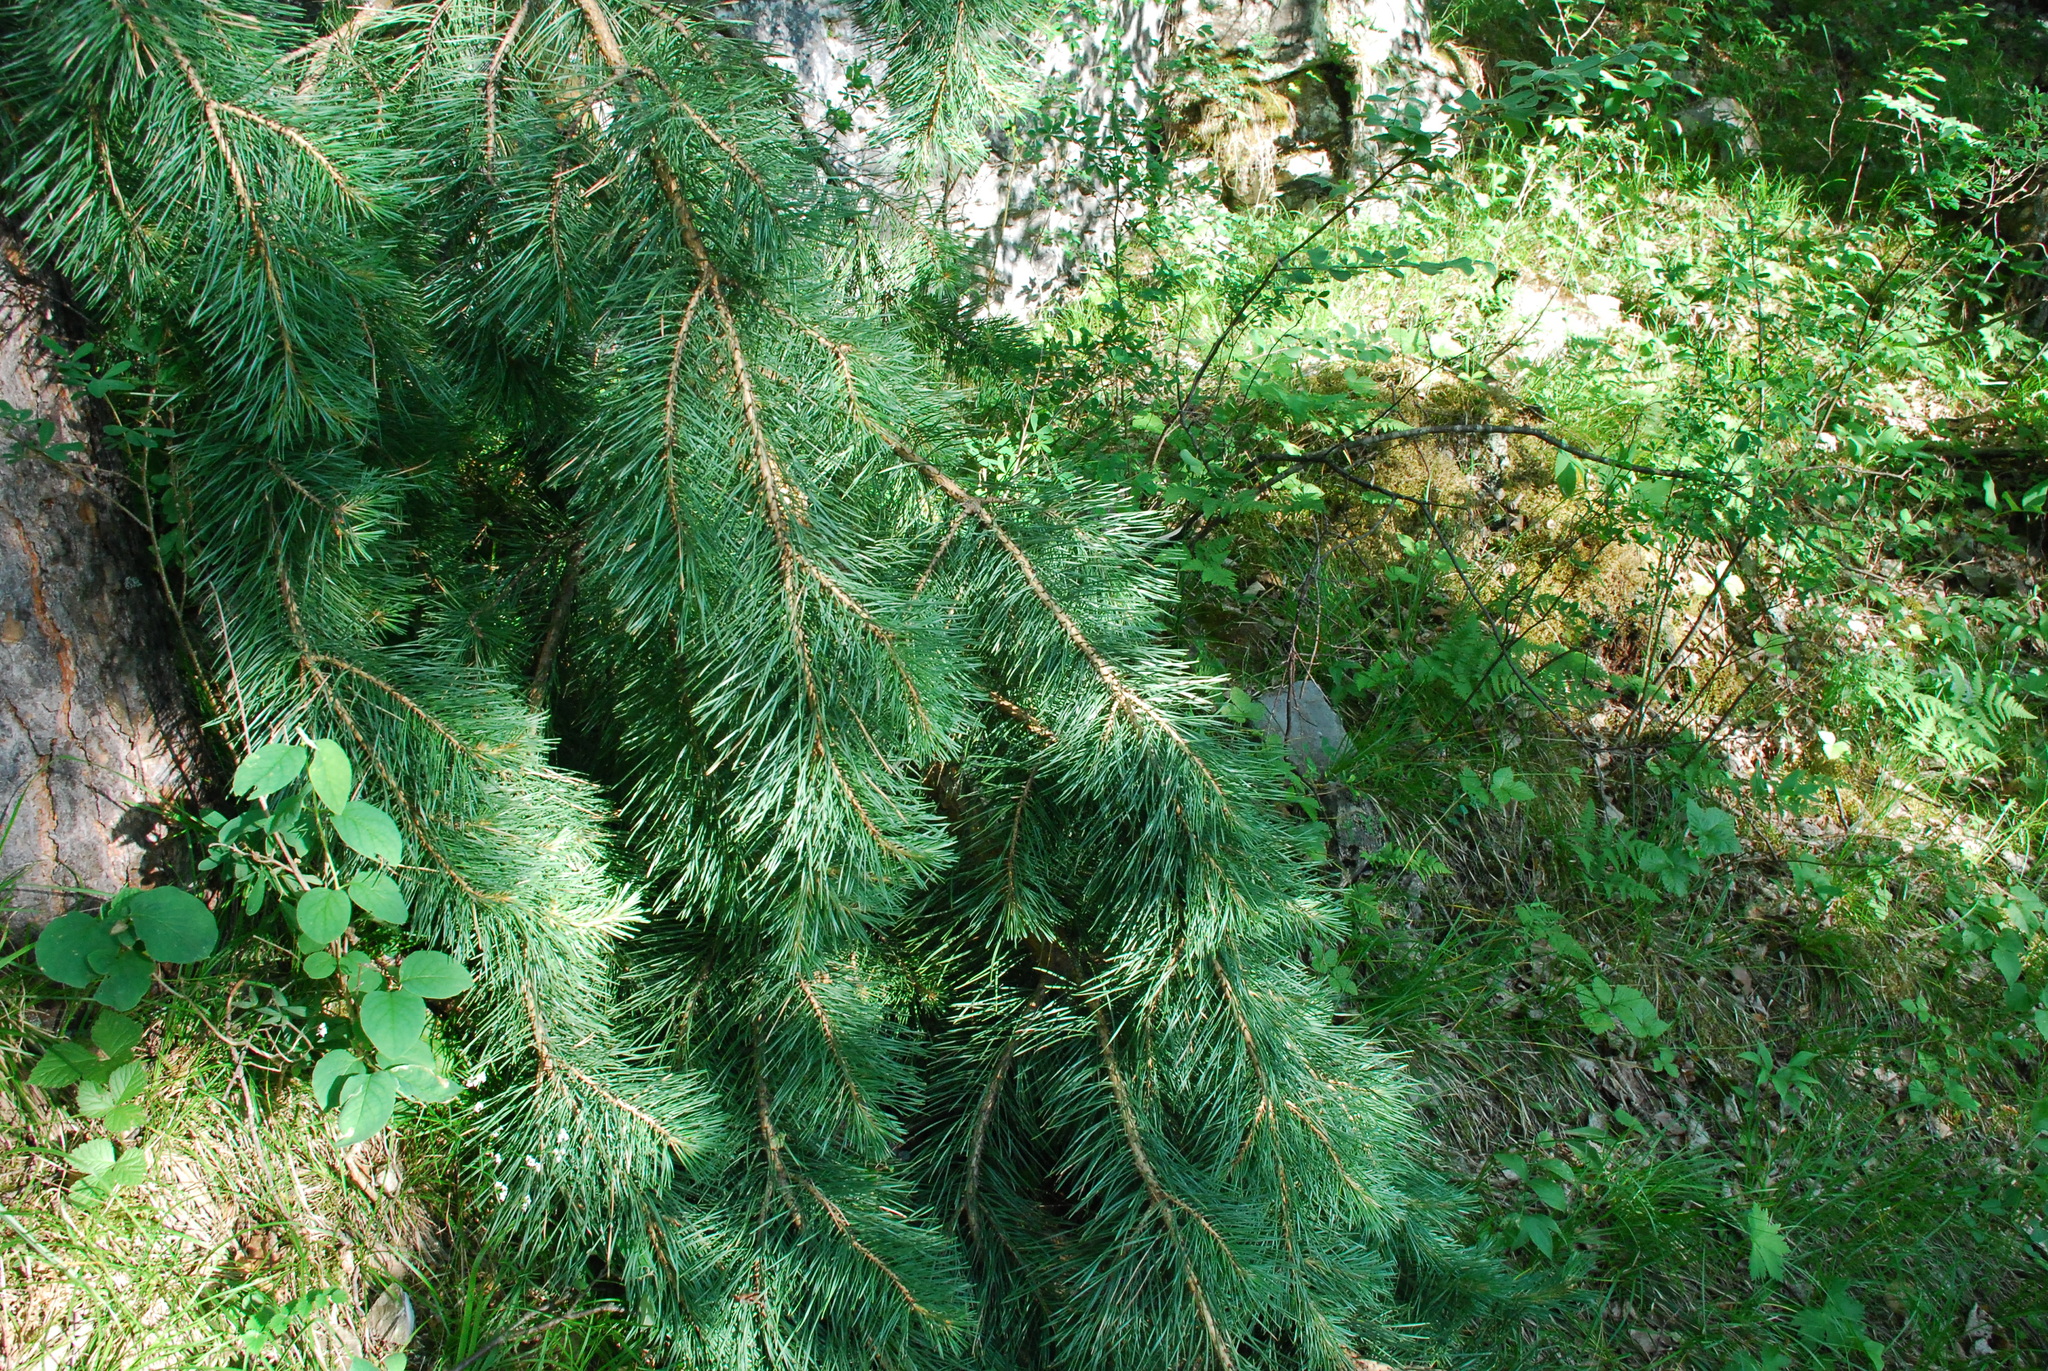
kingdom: Plantae
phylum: Tracheophyta
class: Pinopsida
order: Pinales
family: Pinaceae
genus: Pinus
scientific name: Pinus sylvestris
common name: Scots pine
